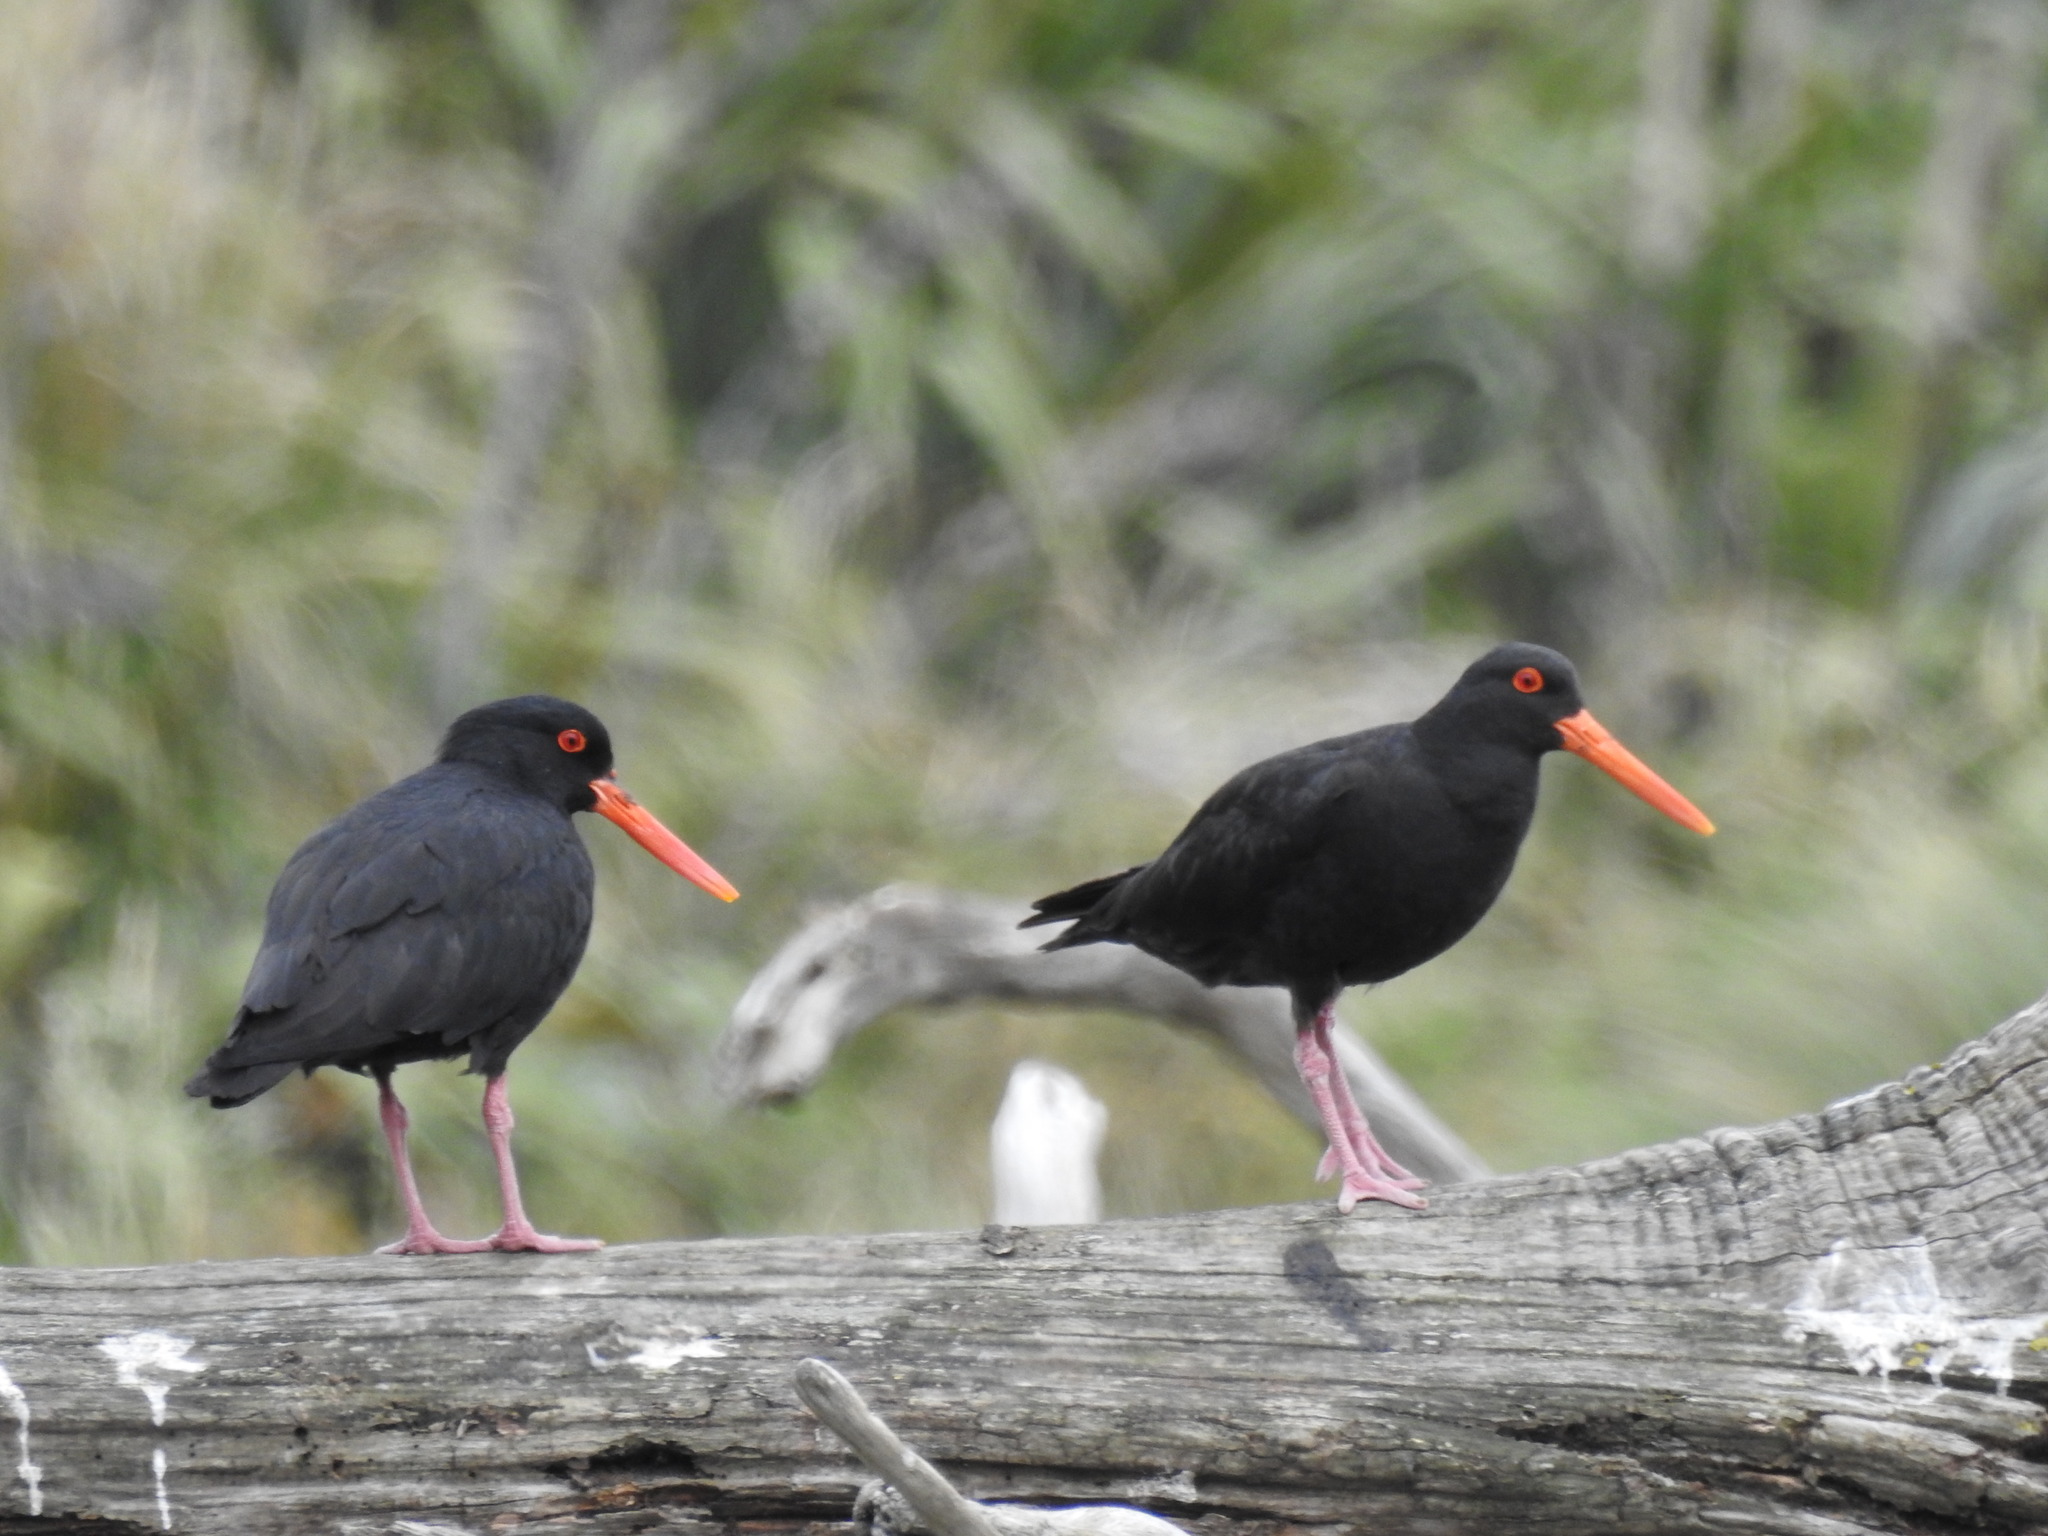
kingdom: Animalia
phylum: Chordata
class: Aves
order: Charadriiformes
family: Haematopodidae
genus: Haematopus
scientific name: Haematopus unicolor
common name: Variable oystercatcher
